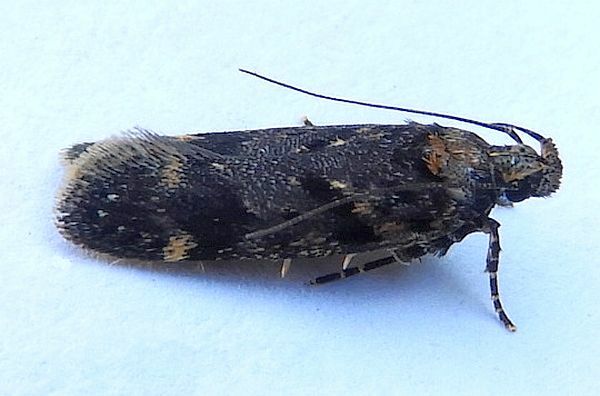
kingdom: Animalia
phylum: Arthropoda
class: Insecta
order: Lepidoptera
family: Gelechiidae
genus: Chionodes
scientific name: Chionodes sevir
